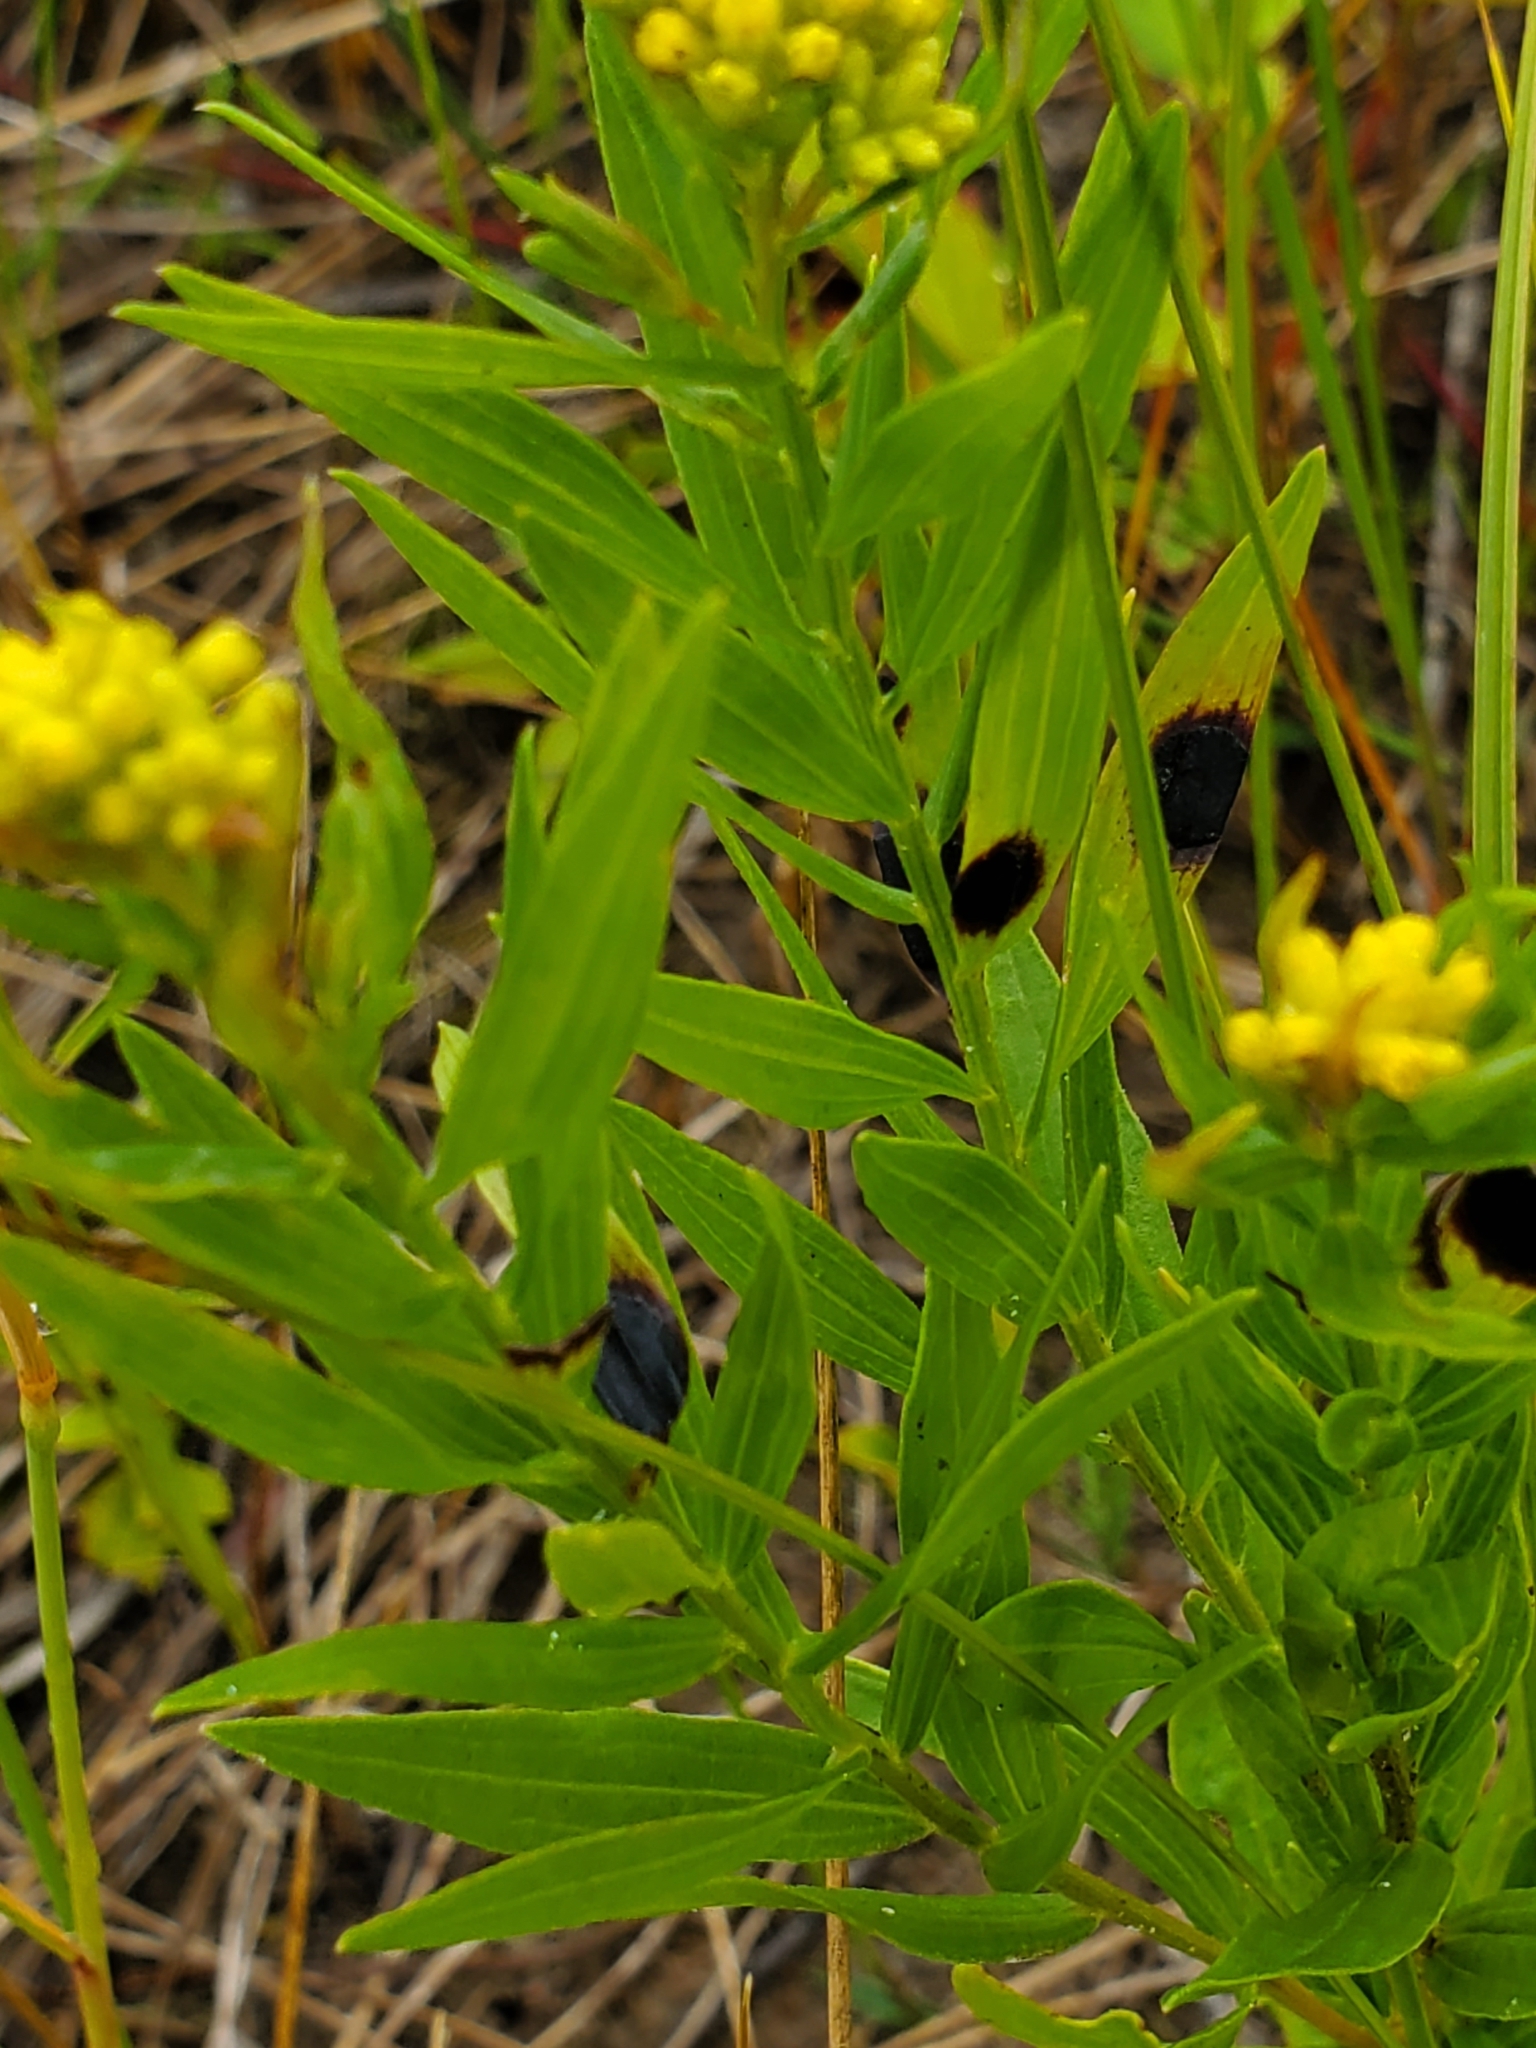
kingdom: Animalia
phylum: Arthropoda
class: Insecta
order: Diptera
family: Cecidomyiidae
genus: Asteromyia
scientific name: Asteromyia euthamiae
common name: Euthamia leaf gall midge
